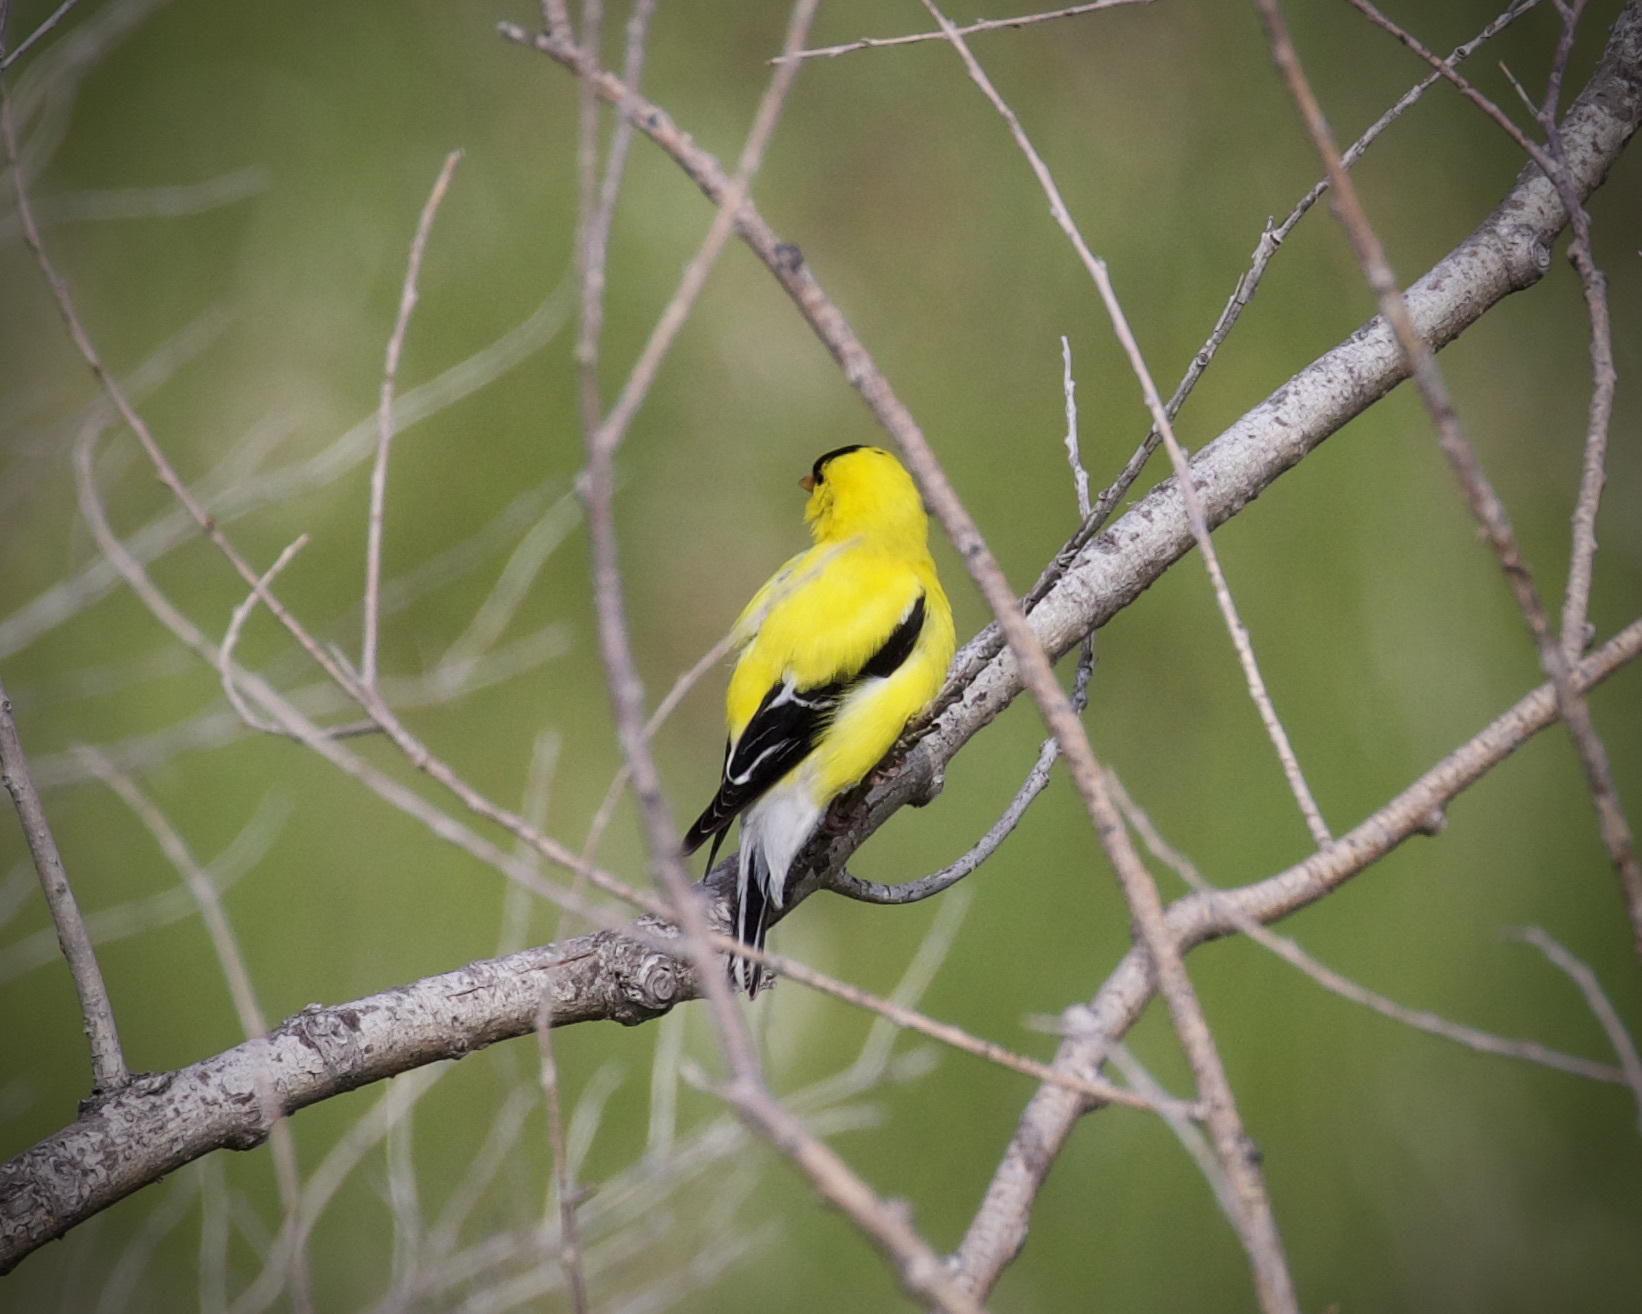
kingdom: Animalia
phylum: Chordata
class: Aves
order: Passeriformes
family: Fringillidae
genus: Spinus
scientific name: Spinus tristis
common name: American goldfinch
